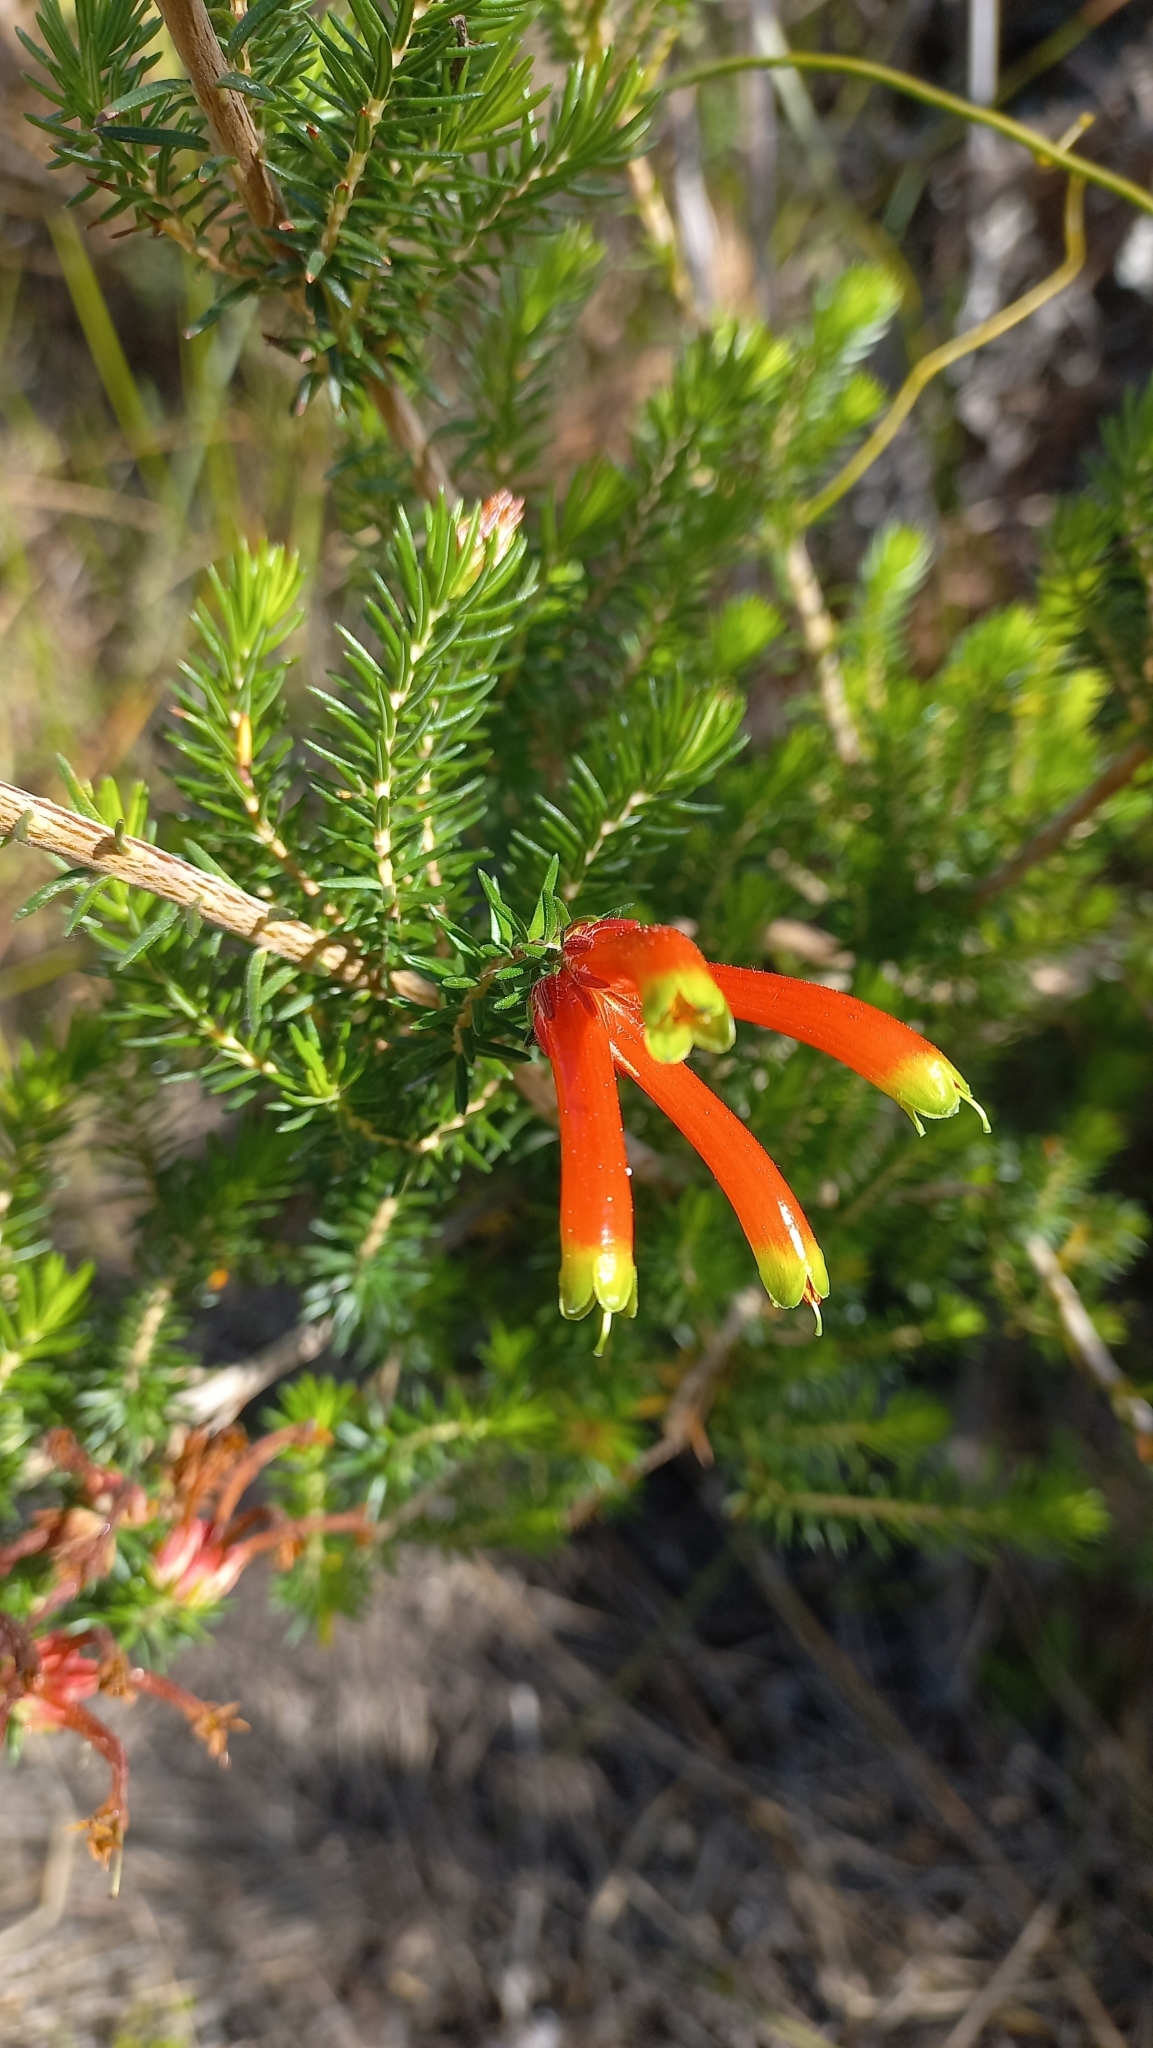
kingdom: Plantae
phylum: Tracheophyta
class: Magnoliopsida
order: Ericales
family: Ericaceae
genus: Erica
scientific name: Erica unicolor
